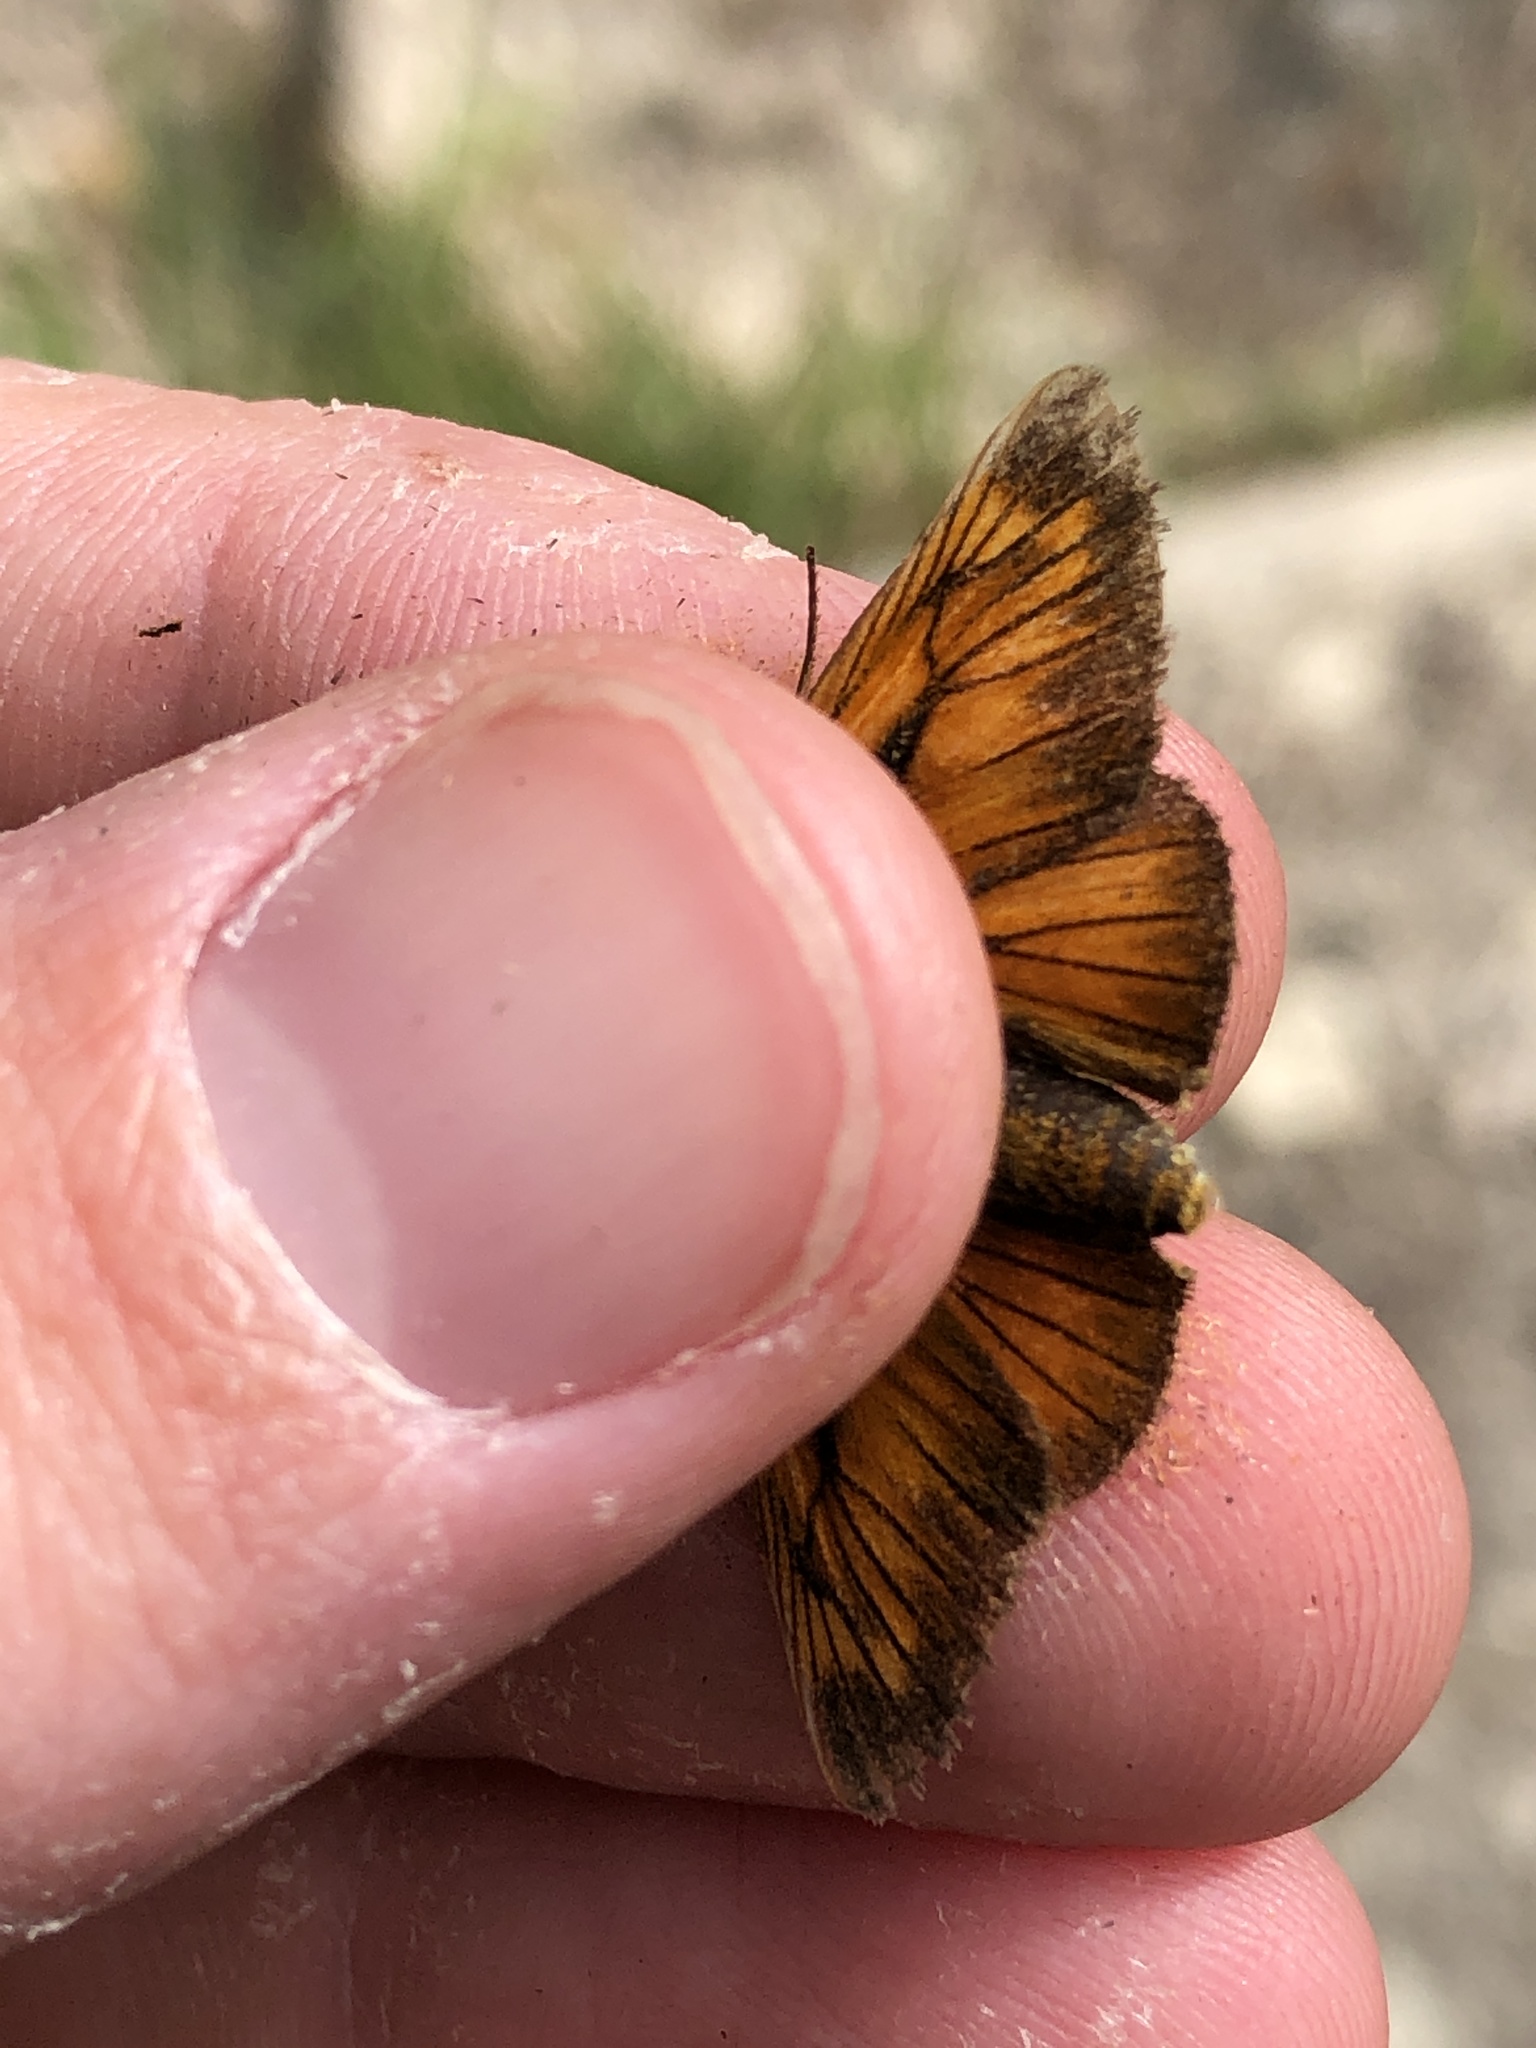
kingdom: Animalia
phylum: Arthropoda
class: Insecta
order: Lepidoptera
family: Hesperiidae
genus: Ochlodes
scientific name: Ochlodes venata
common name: Large skipper
